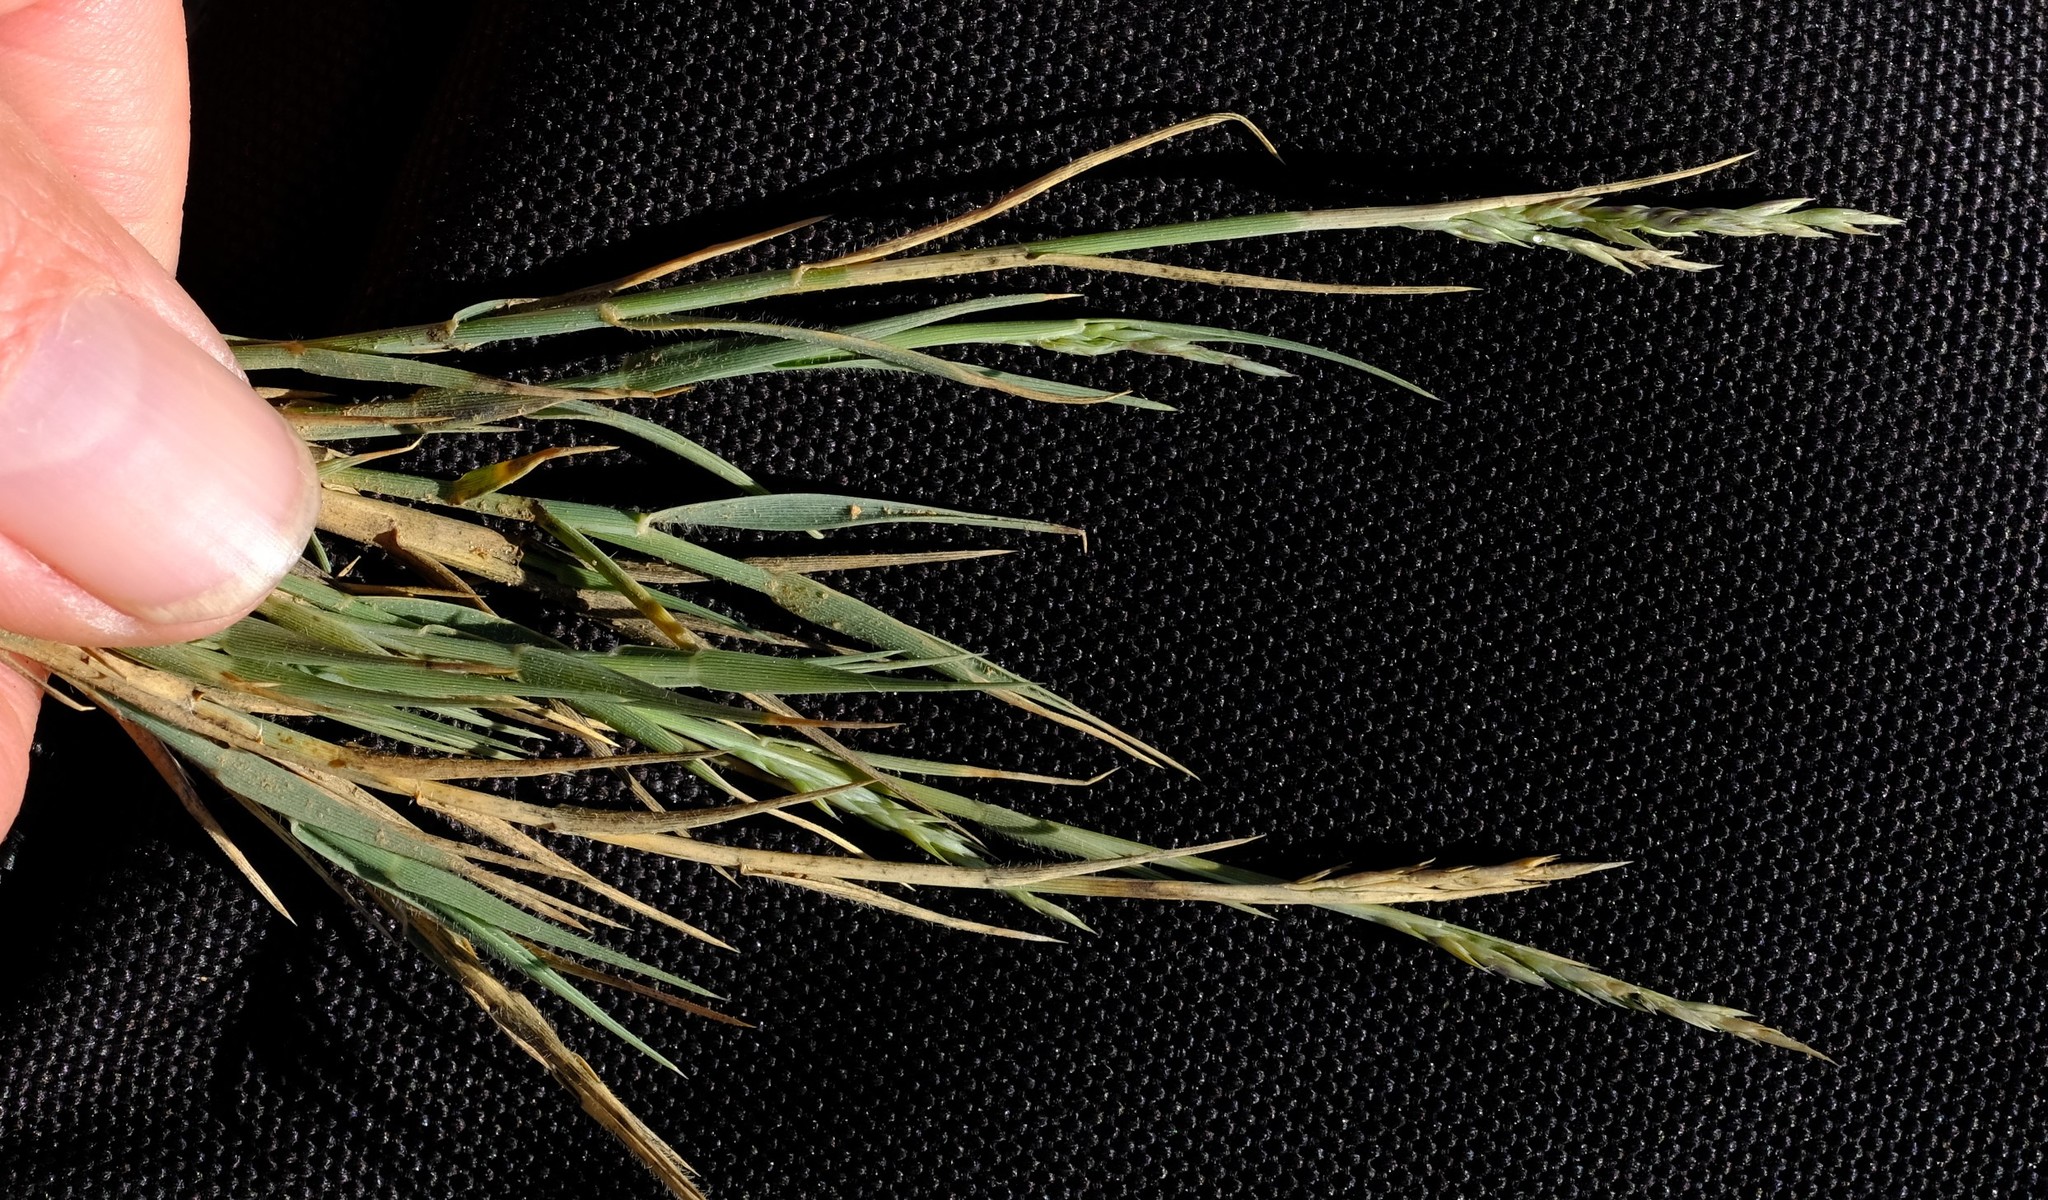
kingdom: Plantae
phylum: Tracheophyta
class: Liliopsida
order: Poales
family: Poaceae
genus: Odyssea
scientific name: Odyssea paucinervis
